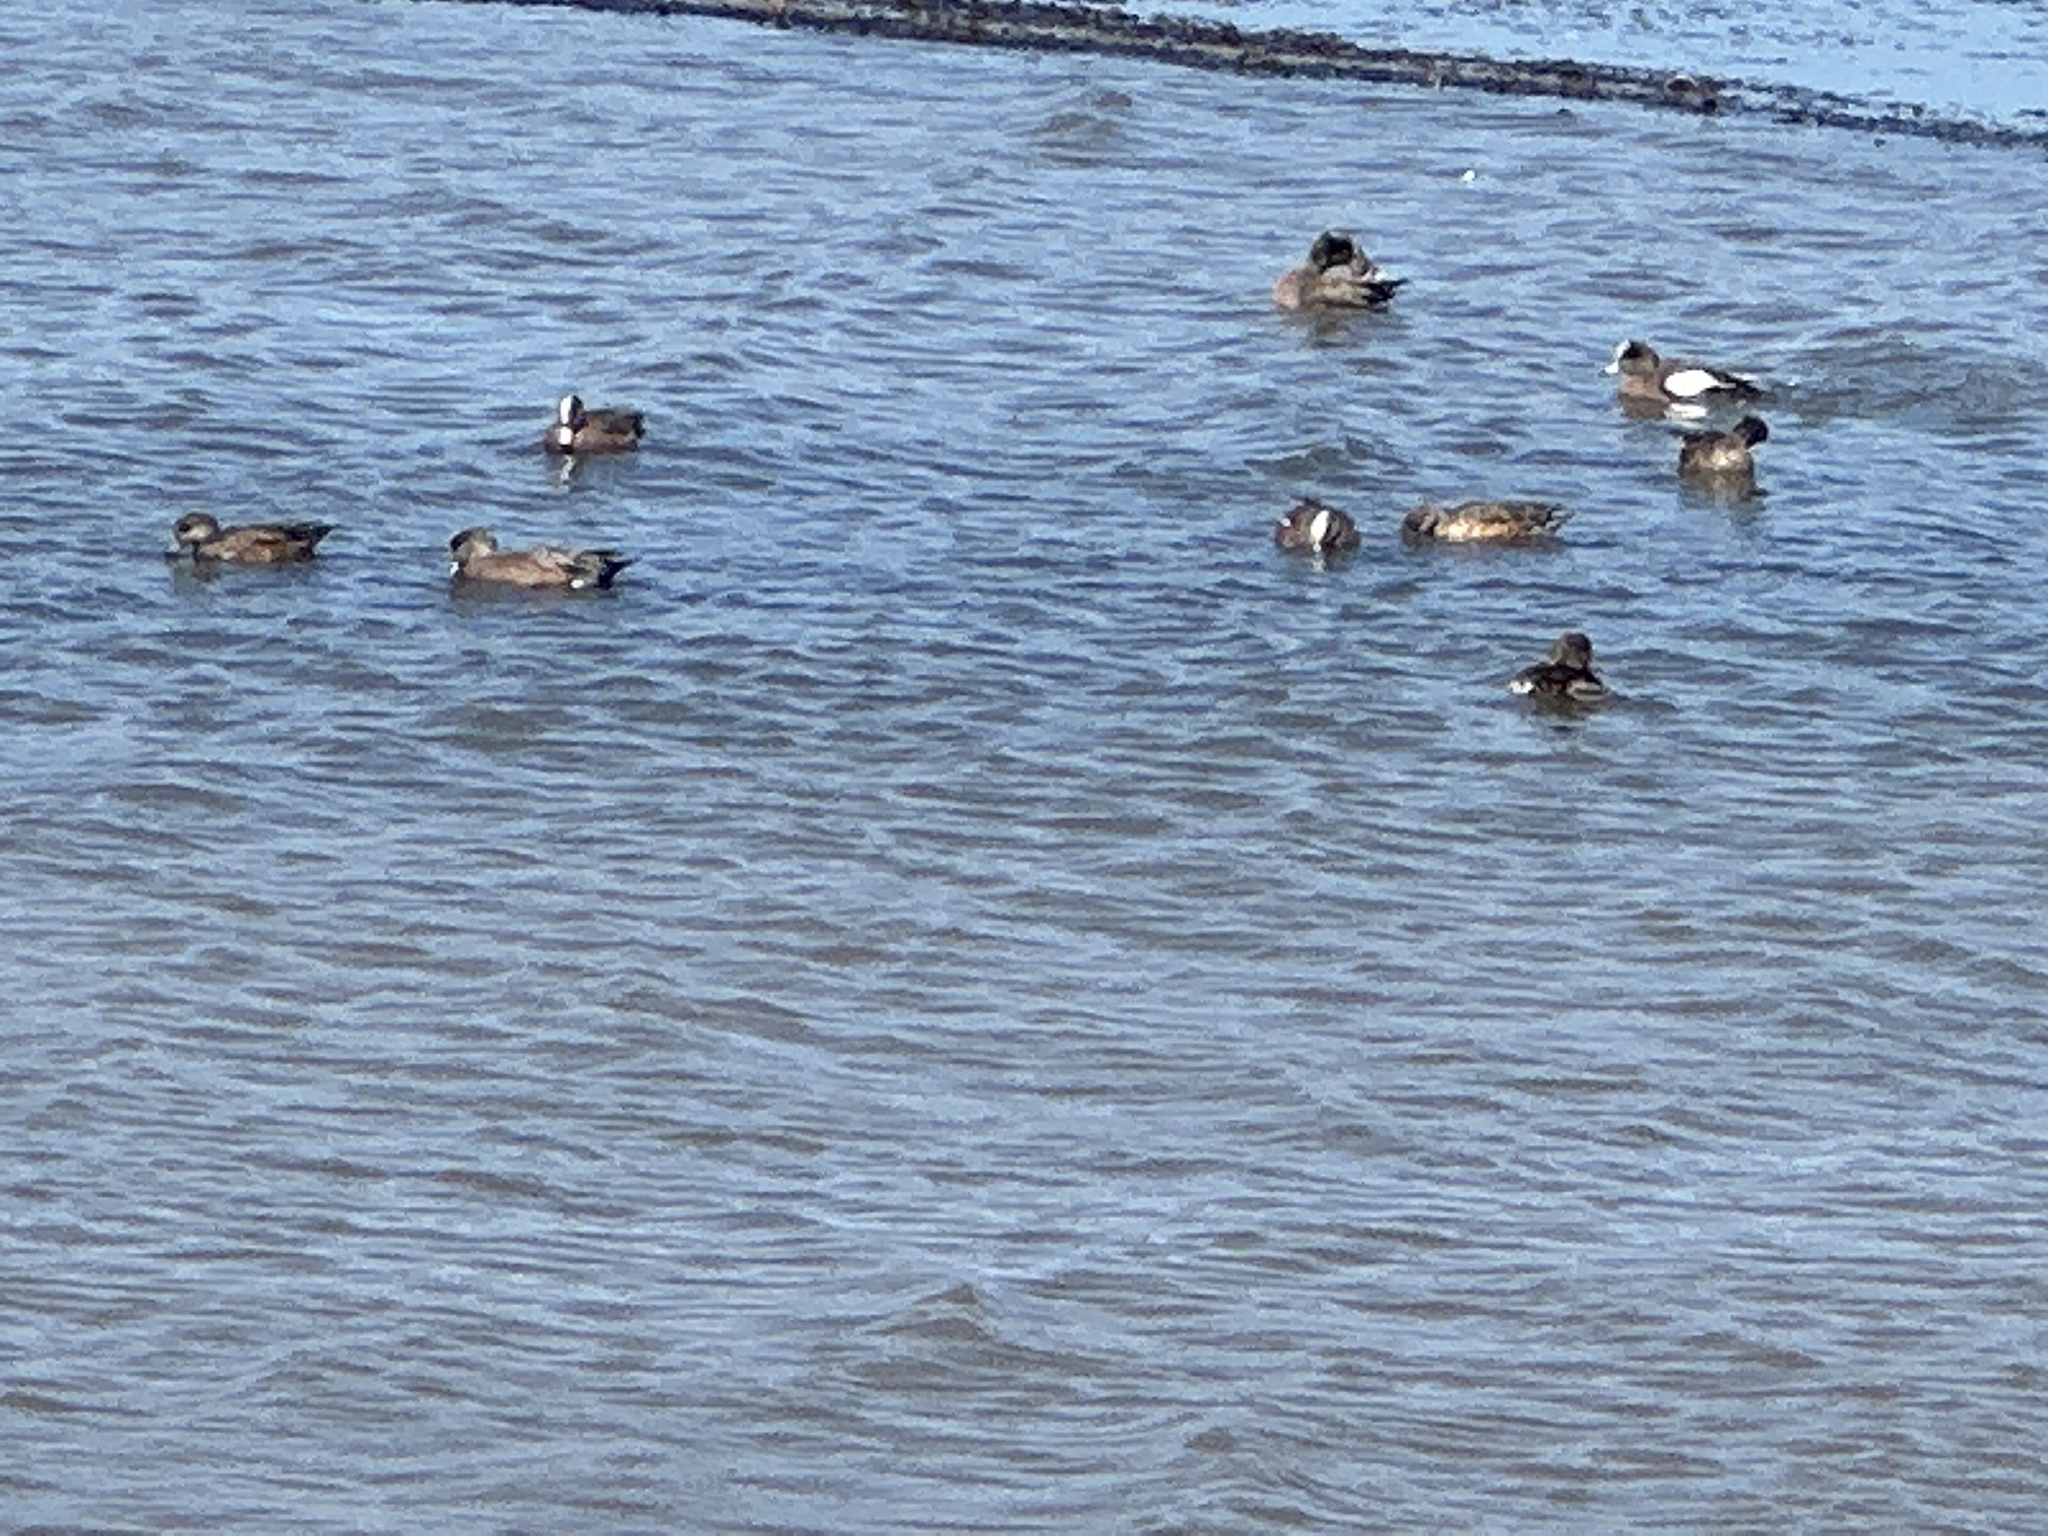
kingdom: Animalia
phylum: Chordata
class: Aves
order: Anseriformes
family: Anatidae
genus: Mareca
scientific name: Mareca americana
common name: American wigeon
